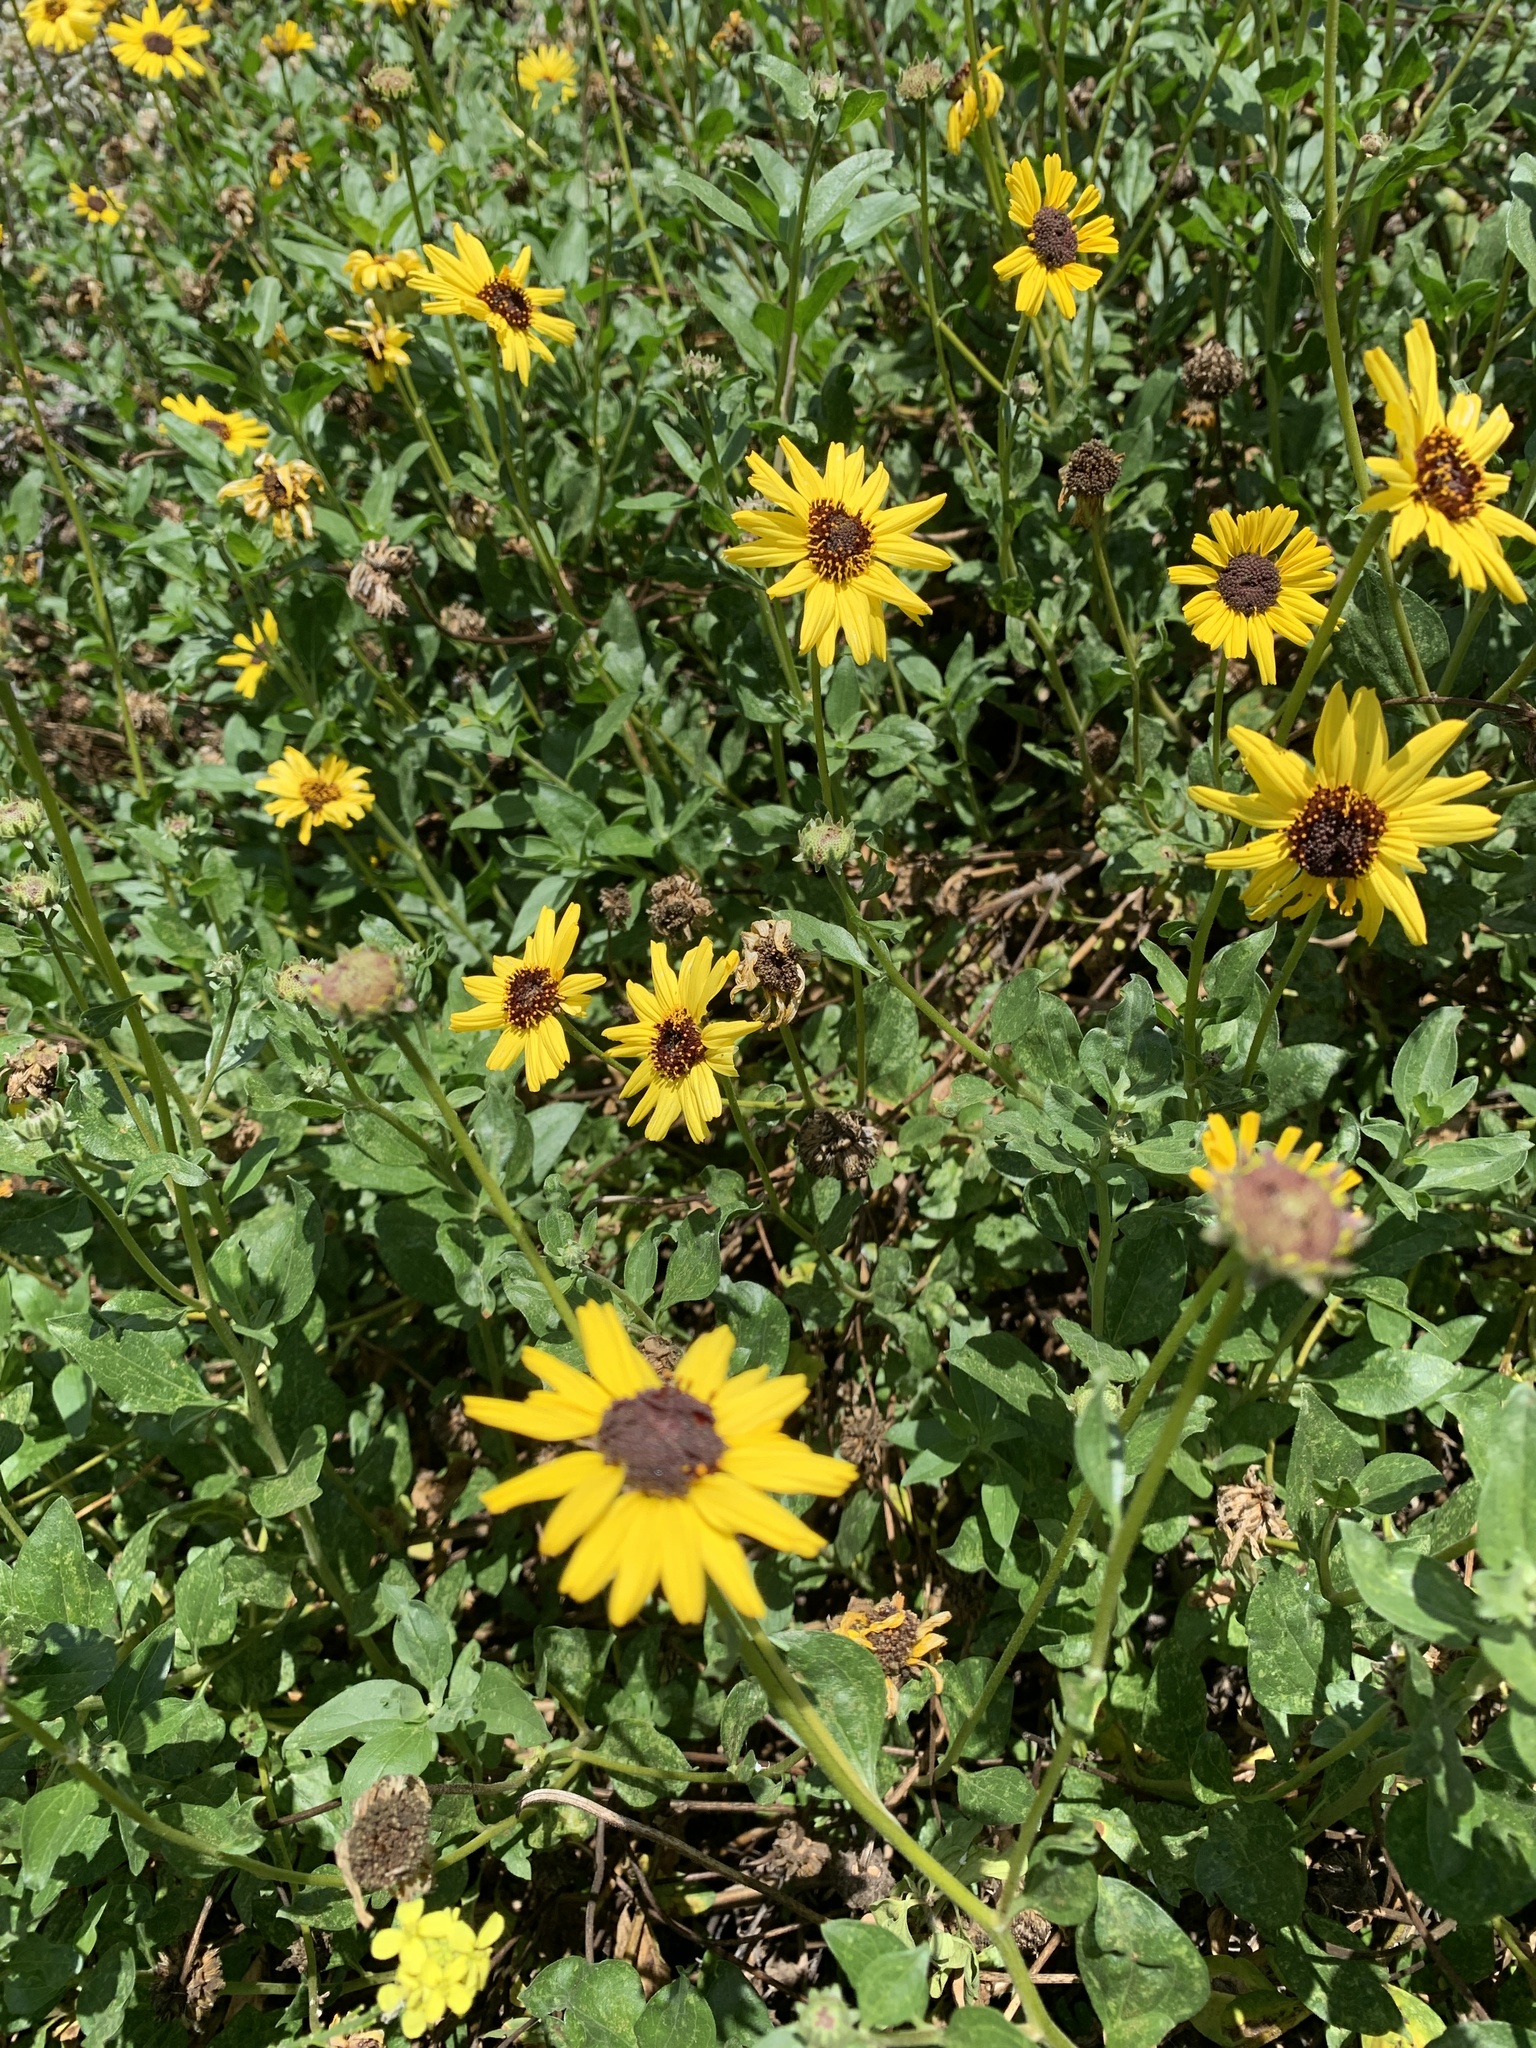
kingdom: Plantae
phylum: Tracheophyta
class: Magnoliopsida
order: Asterales
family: Asteraceae
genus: Encelia
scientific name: Encelia californica
